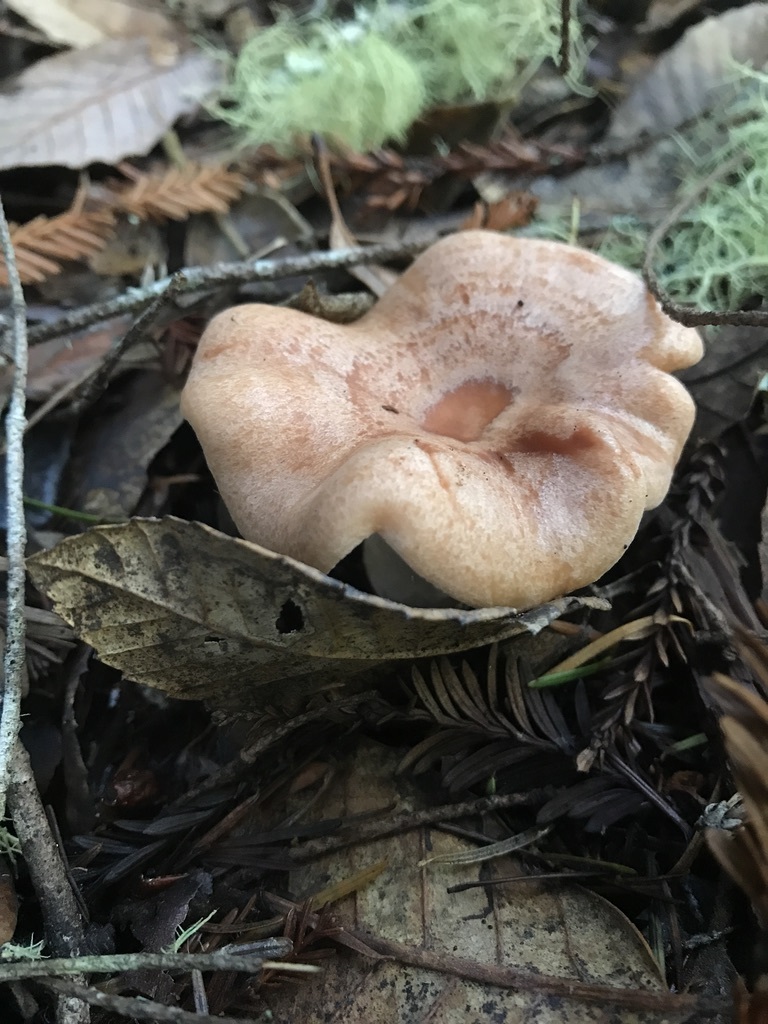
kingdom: Fungi
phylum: Basidiomycota
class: Agaricomycetes
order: Russulales
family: Russulaceae
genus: Lactarius
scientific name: Lactarius xanthogalactus
